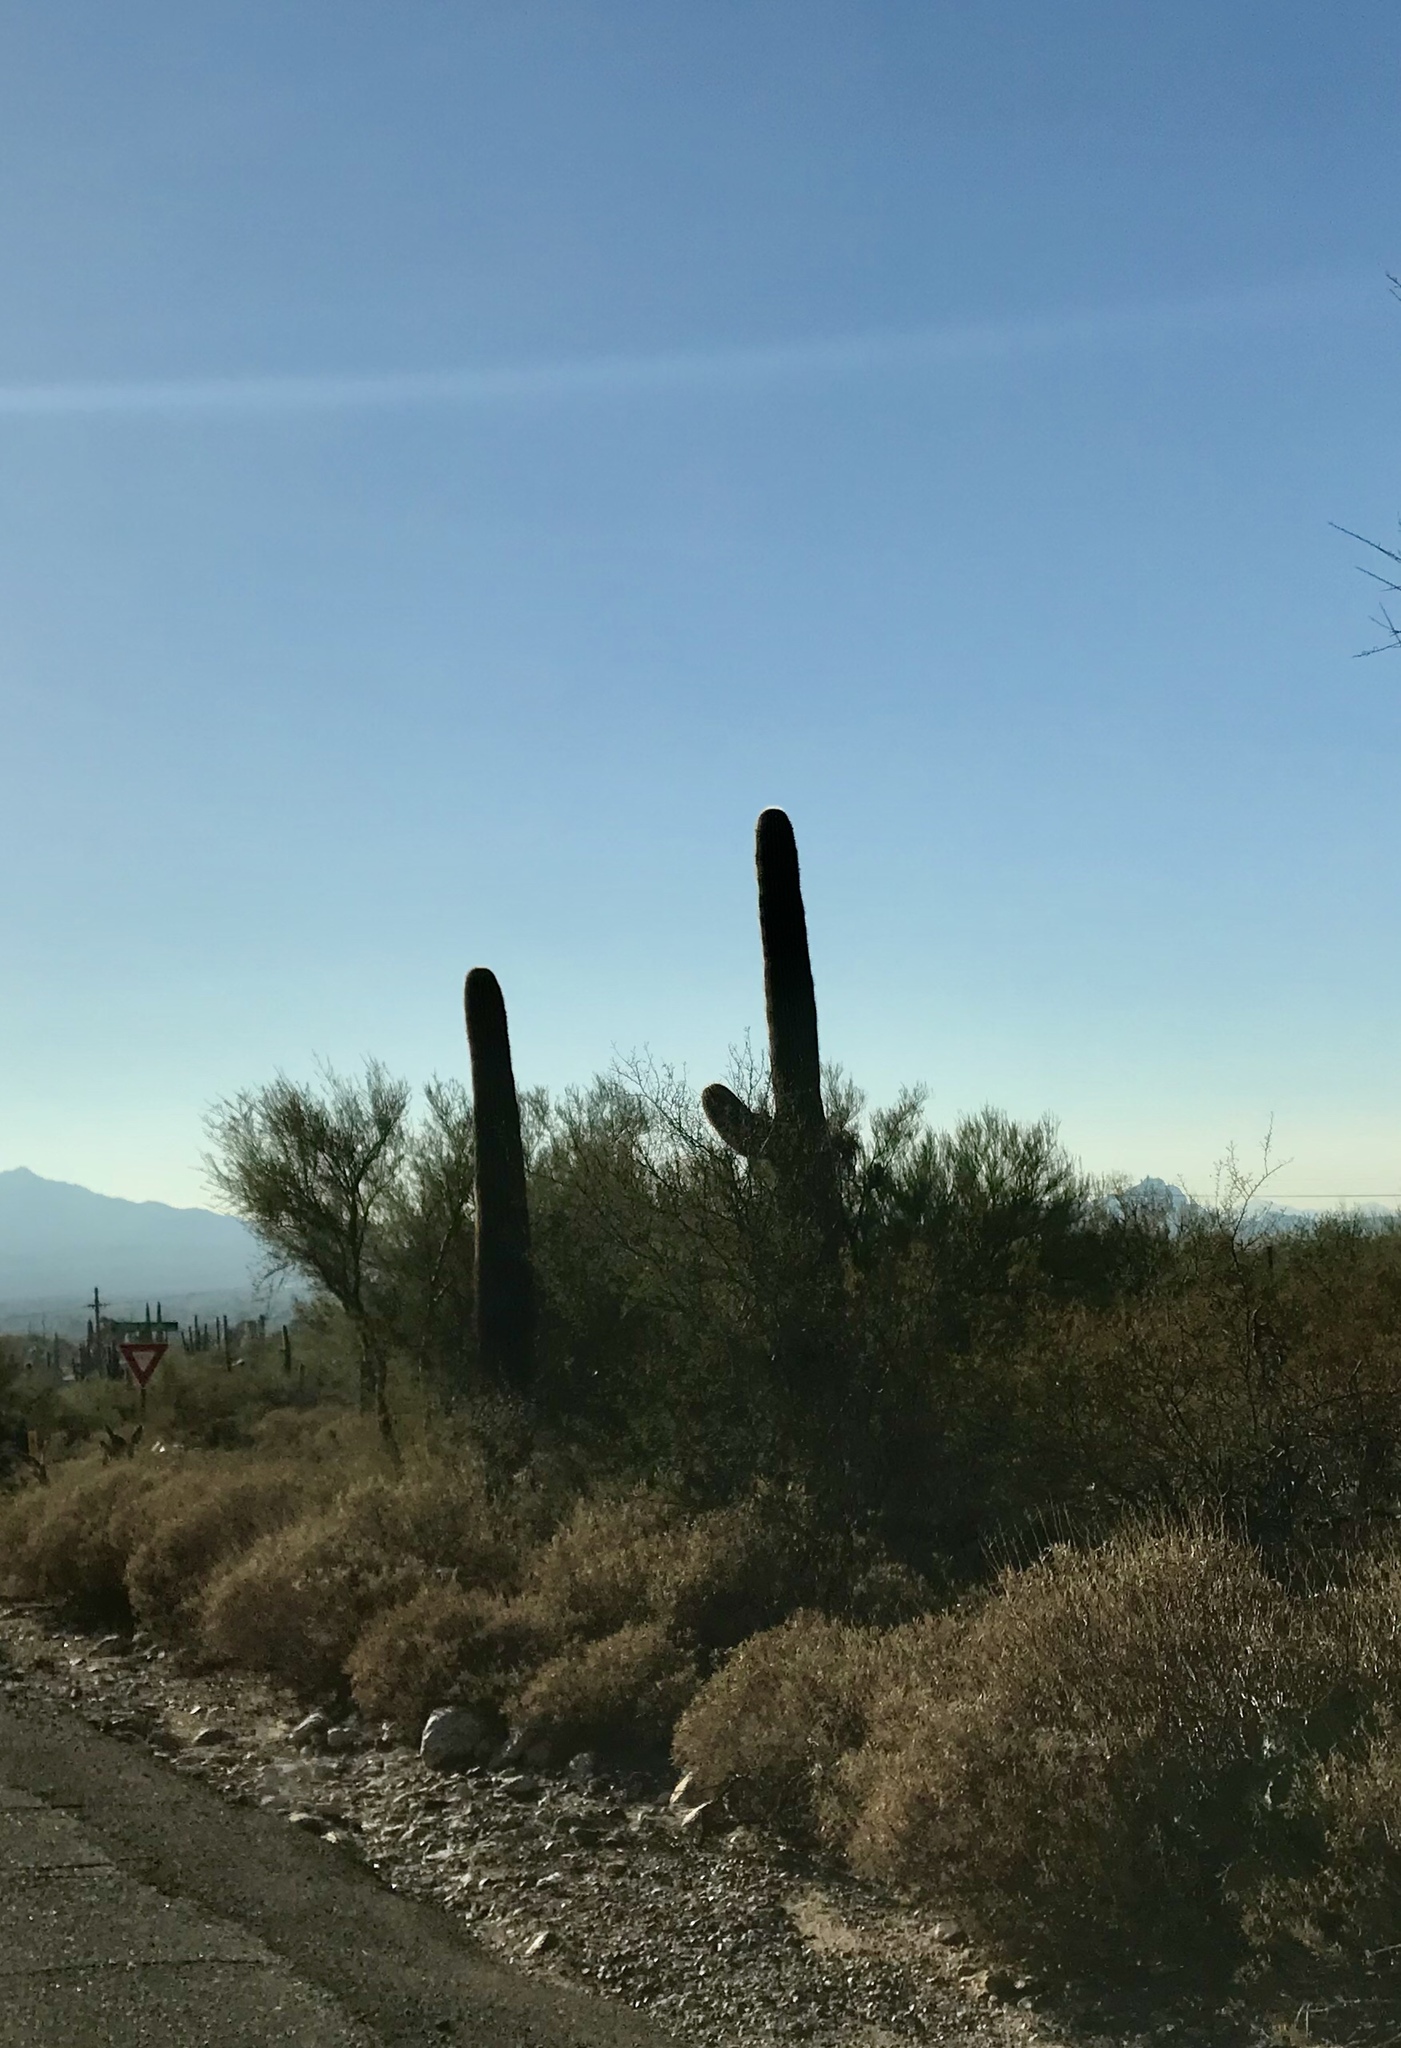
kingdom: Plantae
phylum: Tracheophyta
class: Magnoliopsida
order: Caryophyllales
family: Cactaceae
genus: Carnegiea
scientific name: Carnegiea gigantea
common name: Saguaro
